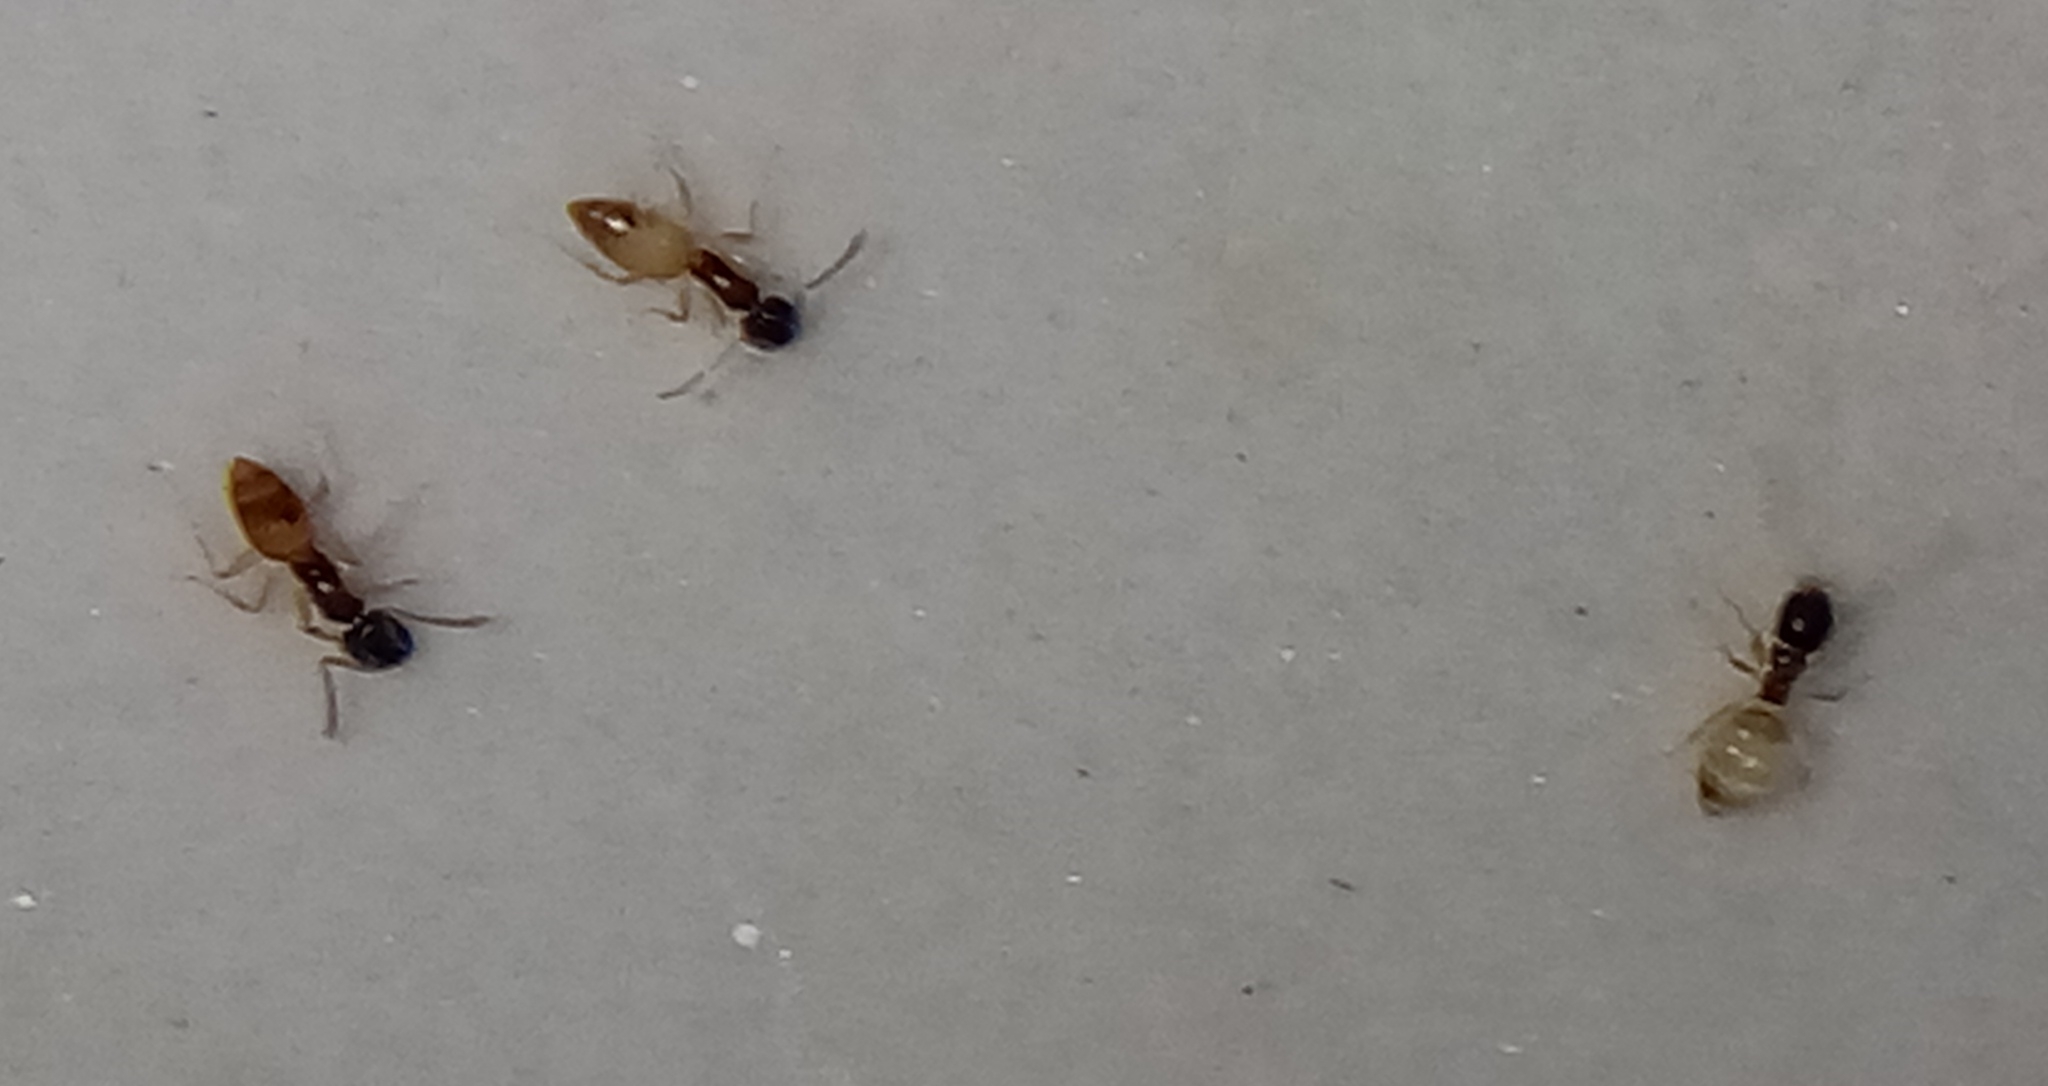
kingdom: Animalia
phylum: Arthropoda
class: Insecta
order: Hymenoptera
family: Formicidae
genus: Tapinoma
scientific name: Tapinoma melanocephalum
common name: Ghost ant
